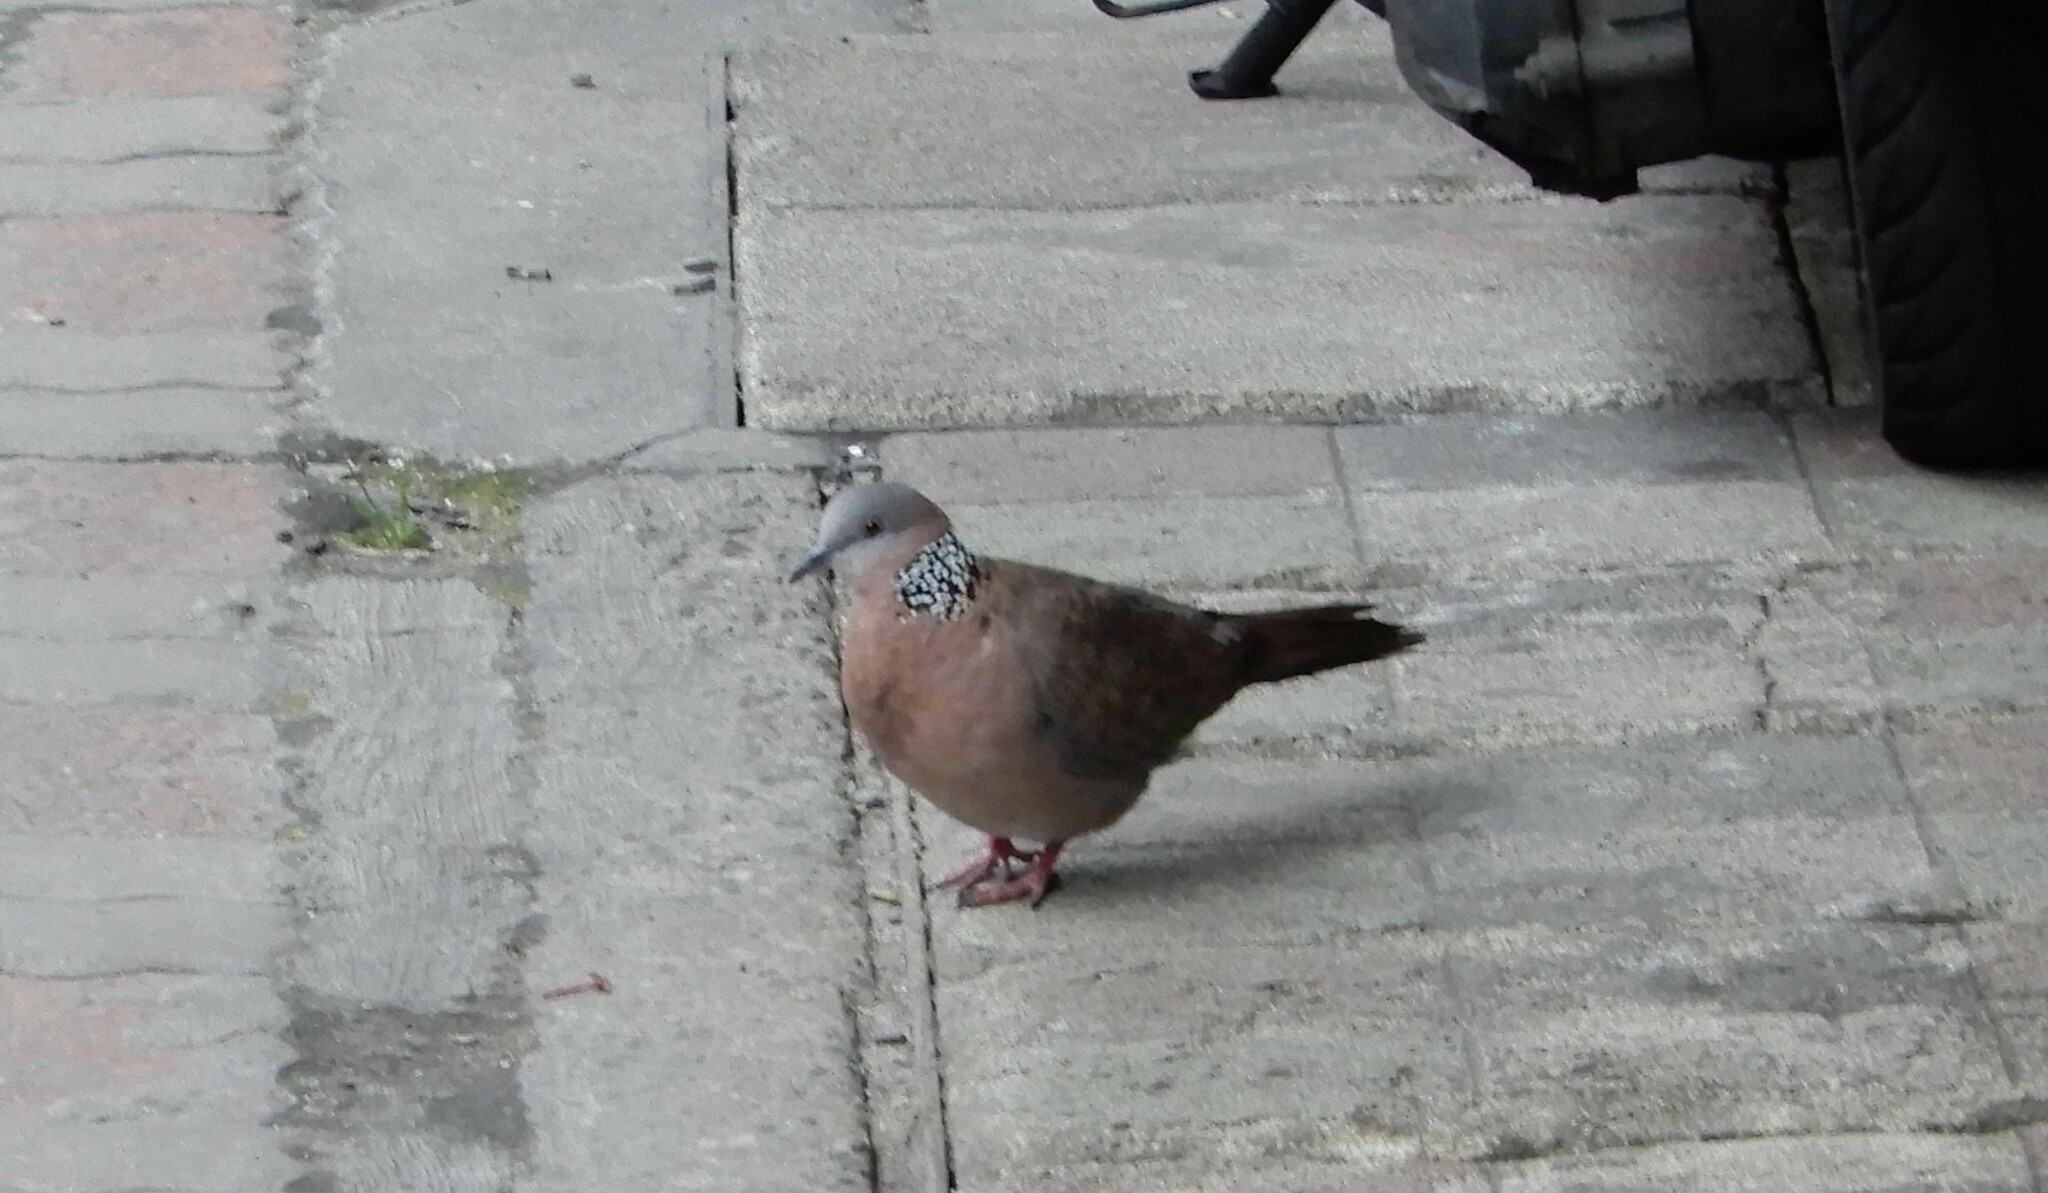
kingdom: Animalia
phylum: Chordata
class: Aves
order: Columbiformes
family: Columbidae
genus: Spilopelia
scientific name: Spilopelia chinensis
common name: Spotted dove
